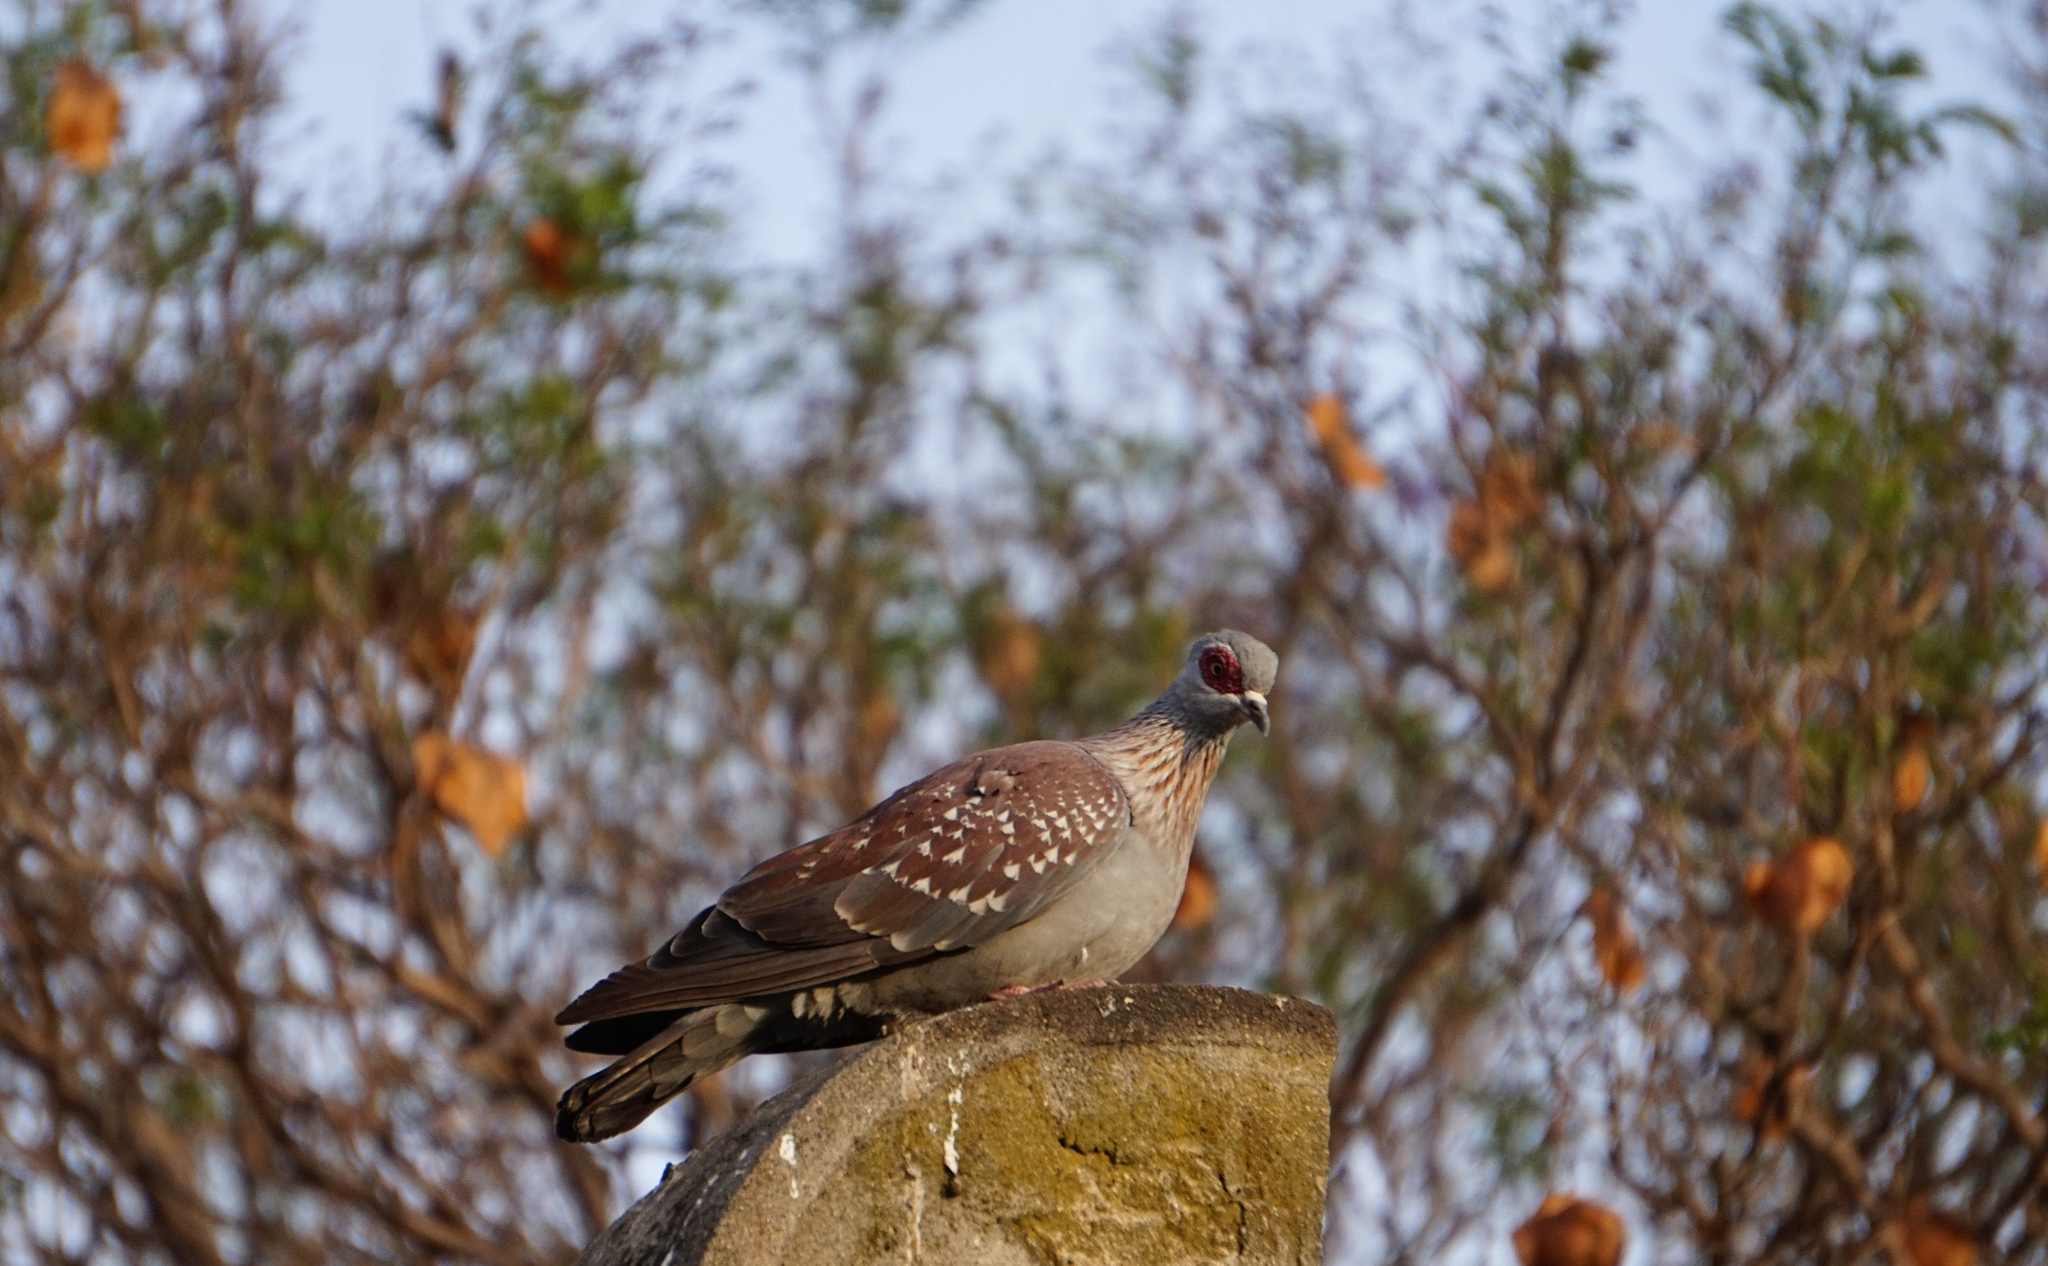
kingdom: Animalia
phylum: Chordata
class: Aves
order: Columbiformes
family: Columbidae
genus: Columba
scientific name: Columba guinea
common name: Speckled pigeon
